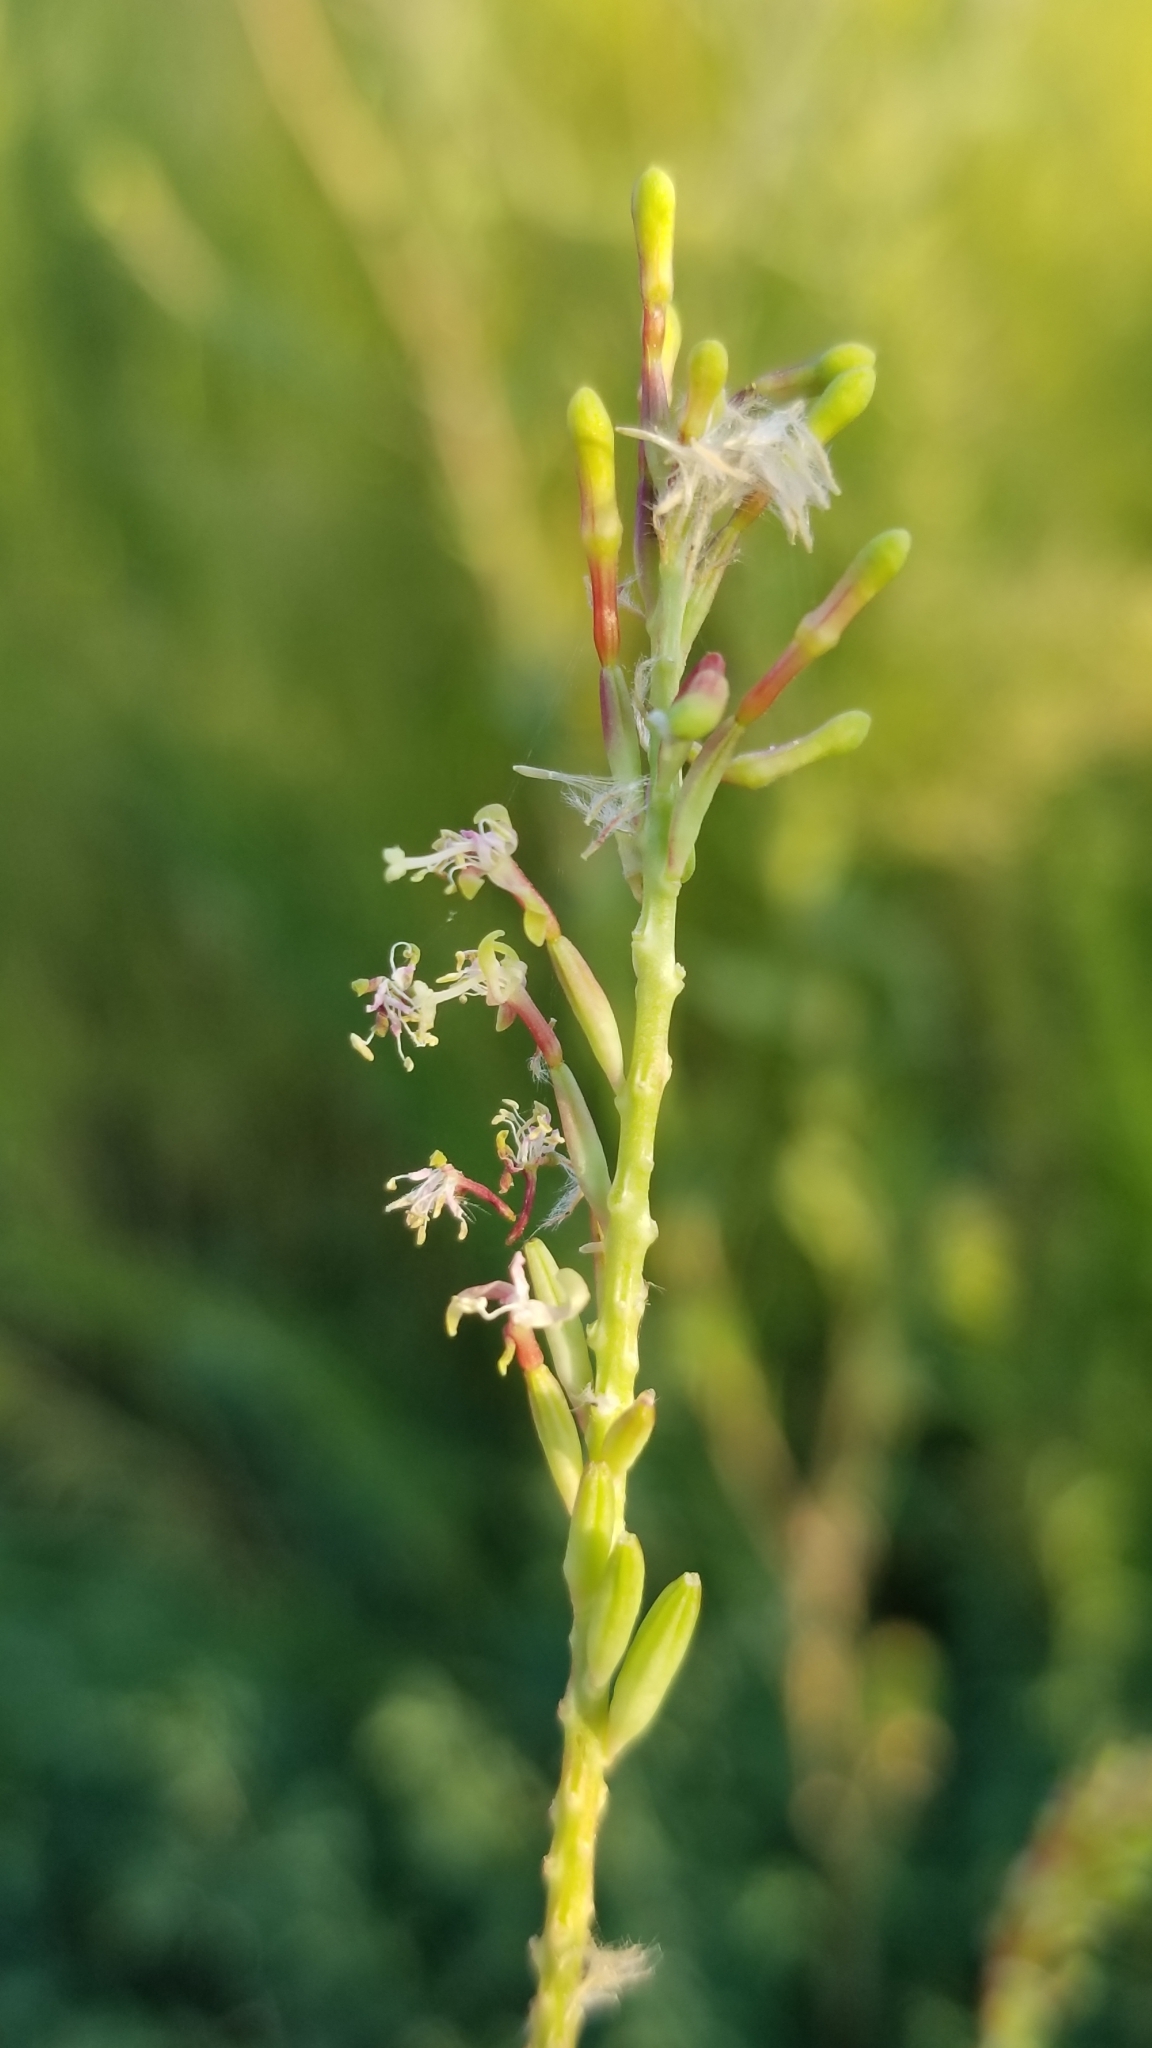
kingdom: Plantae
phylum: Tracheophyta
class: Magnoliopsida
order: Myrtales
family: Onagraceae
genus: Oenothera
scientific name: Oenothera curtiflora
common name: Velvetweed
